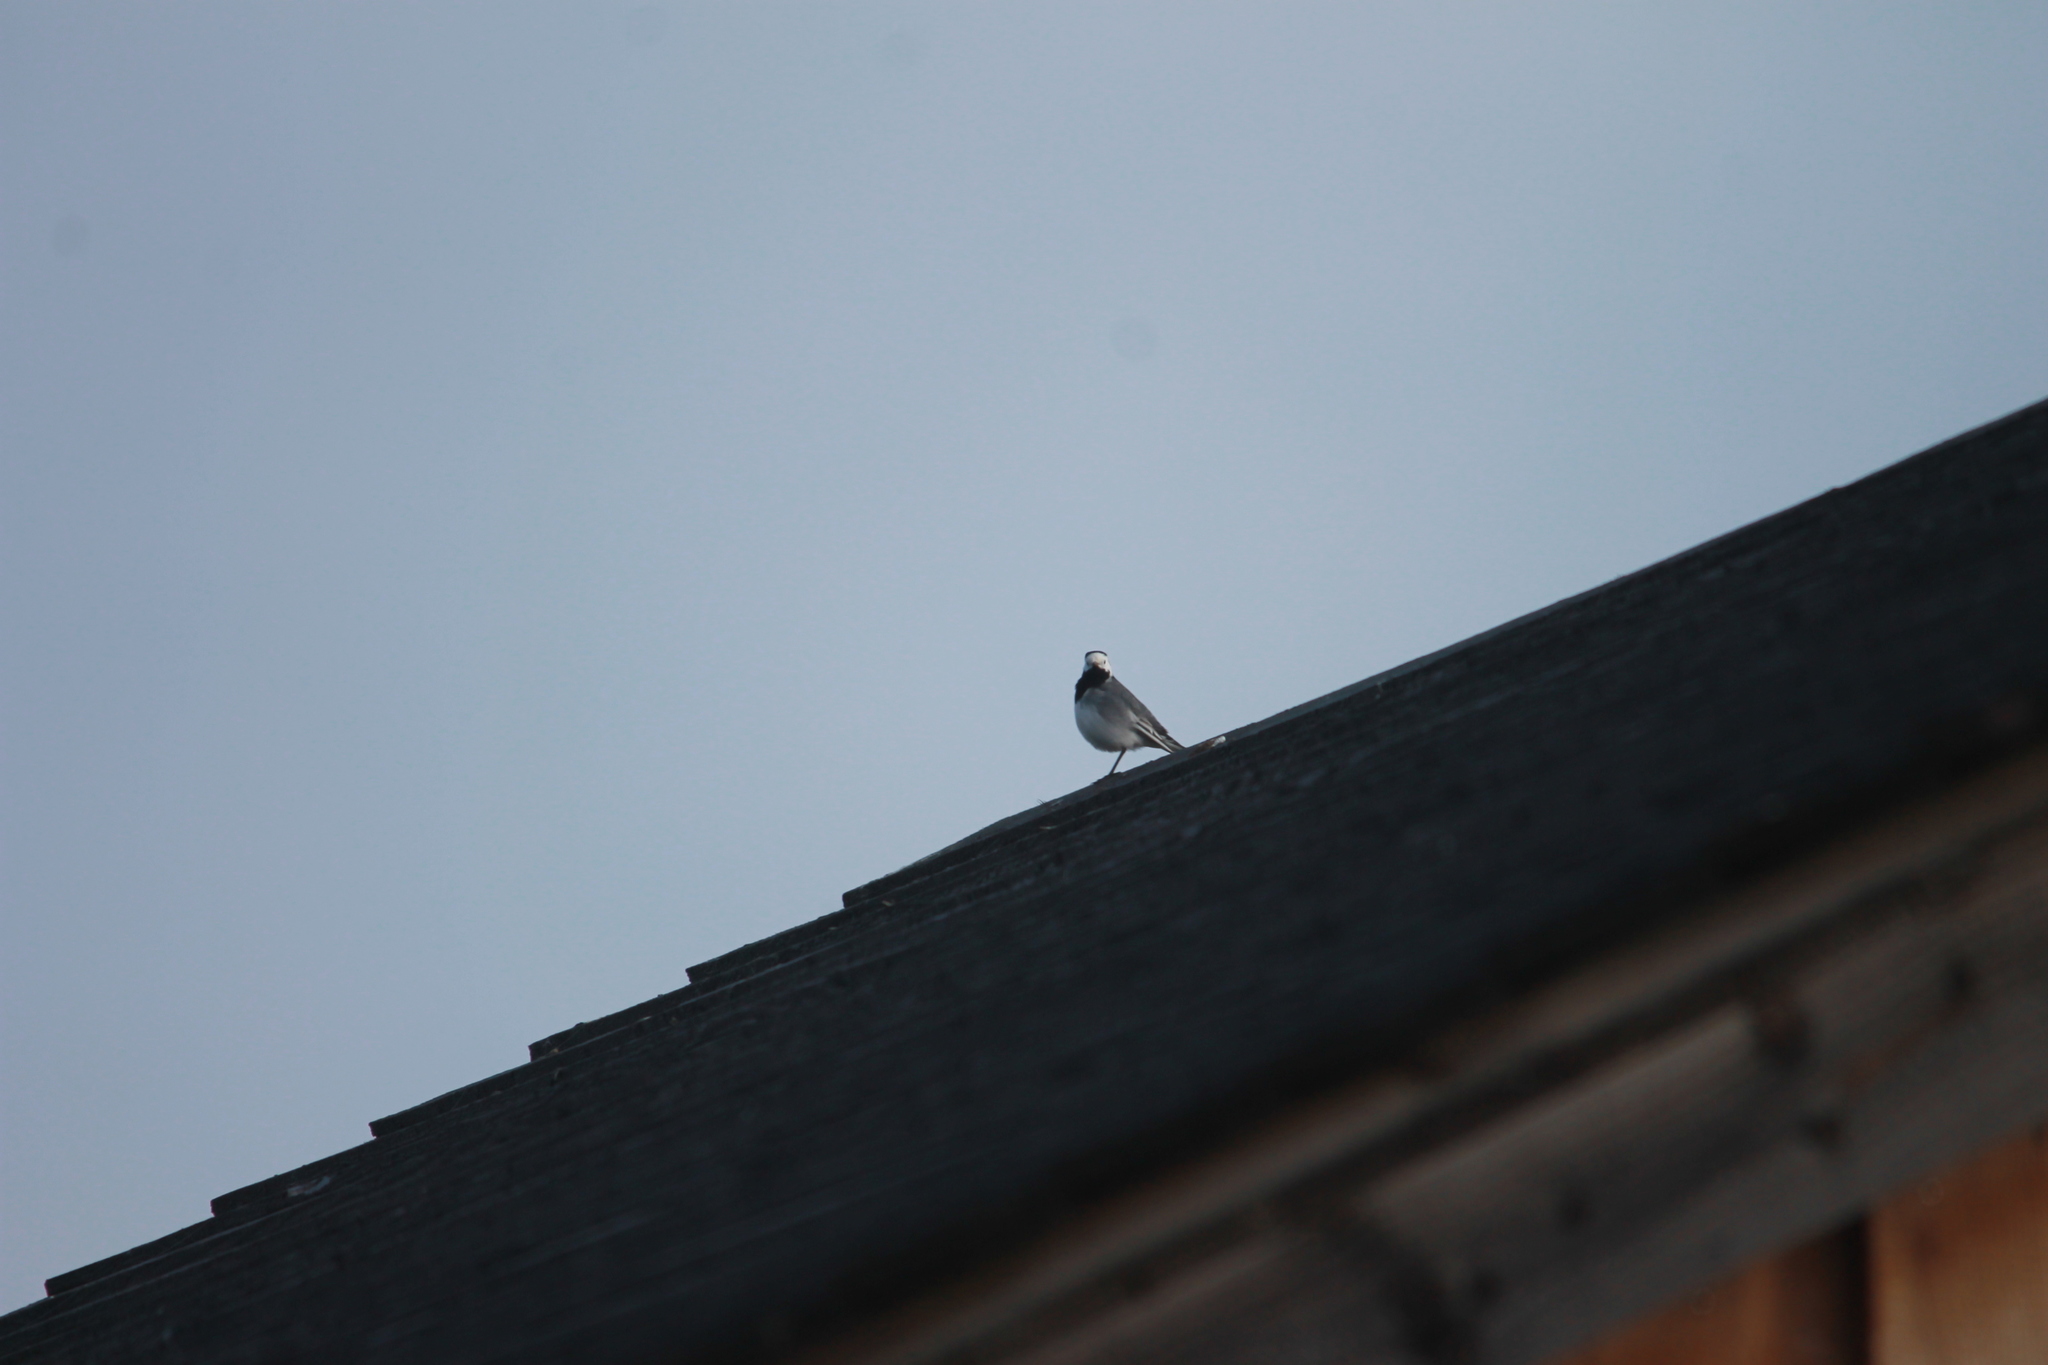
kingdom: Animalia
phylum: Chordata
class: Aves
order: Passeriformes
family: Motacillidae
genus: Motacilla
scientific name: Motacilla alba
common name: White wagtail
